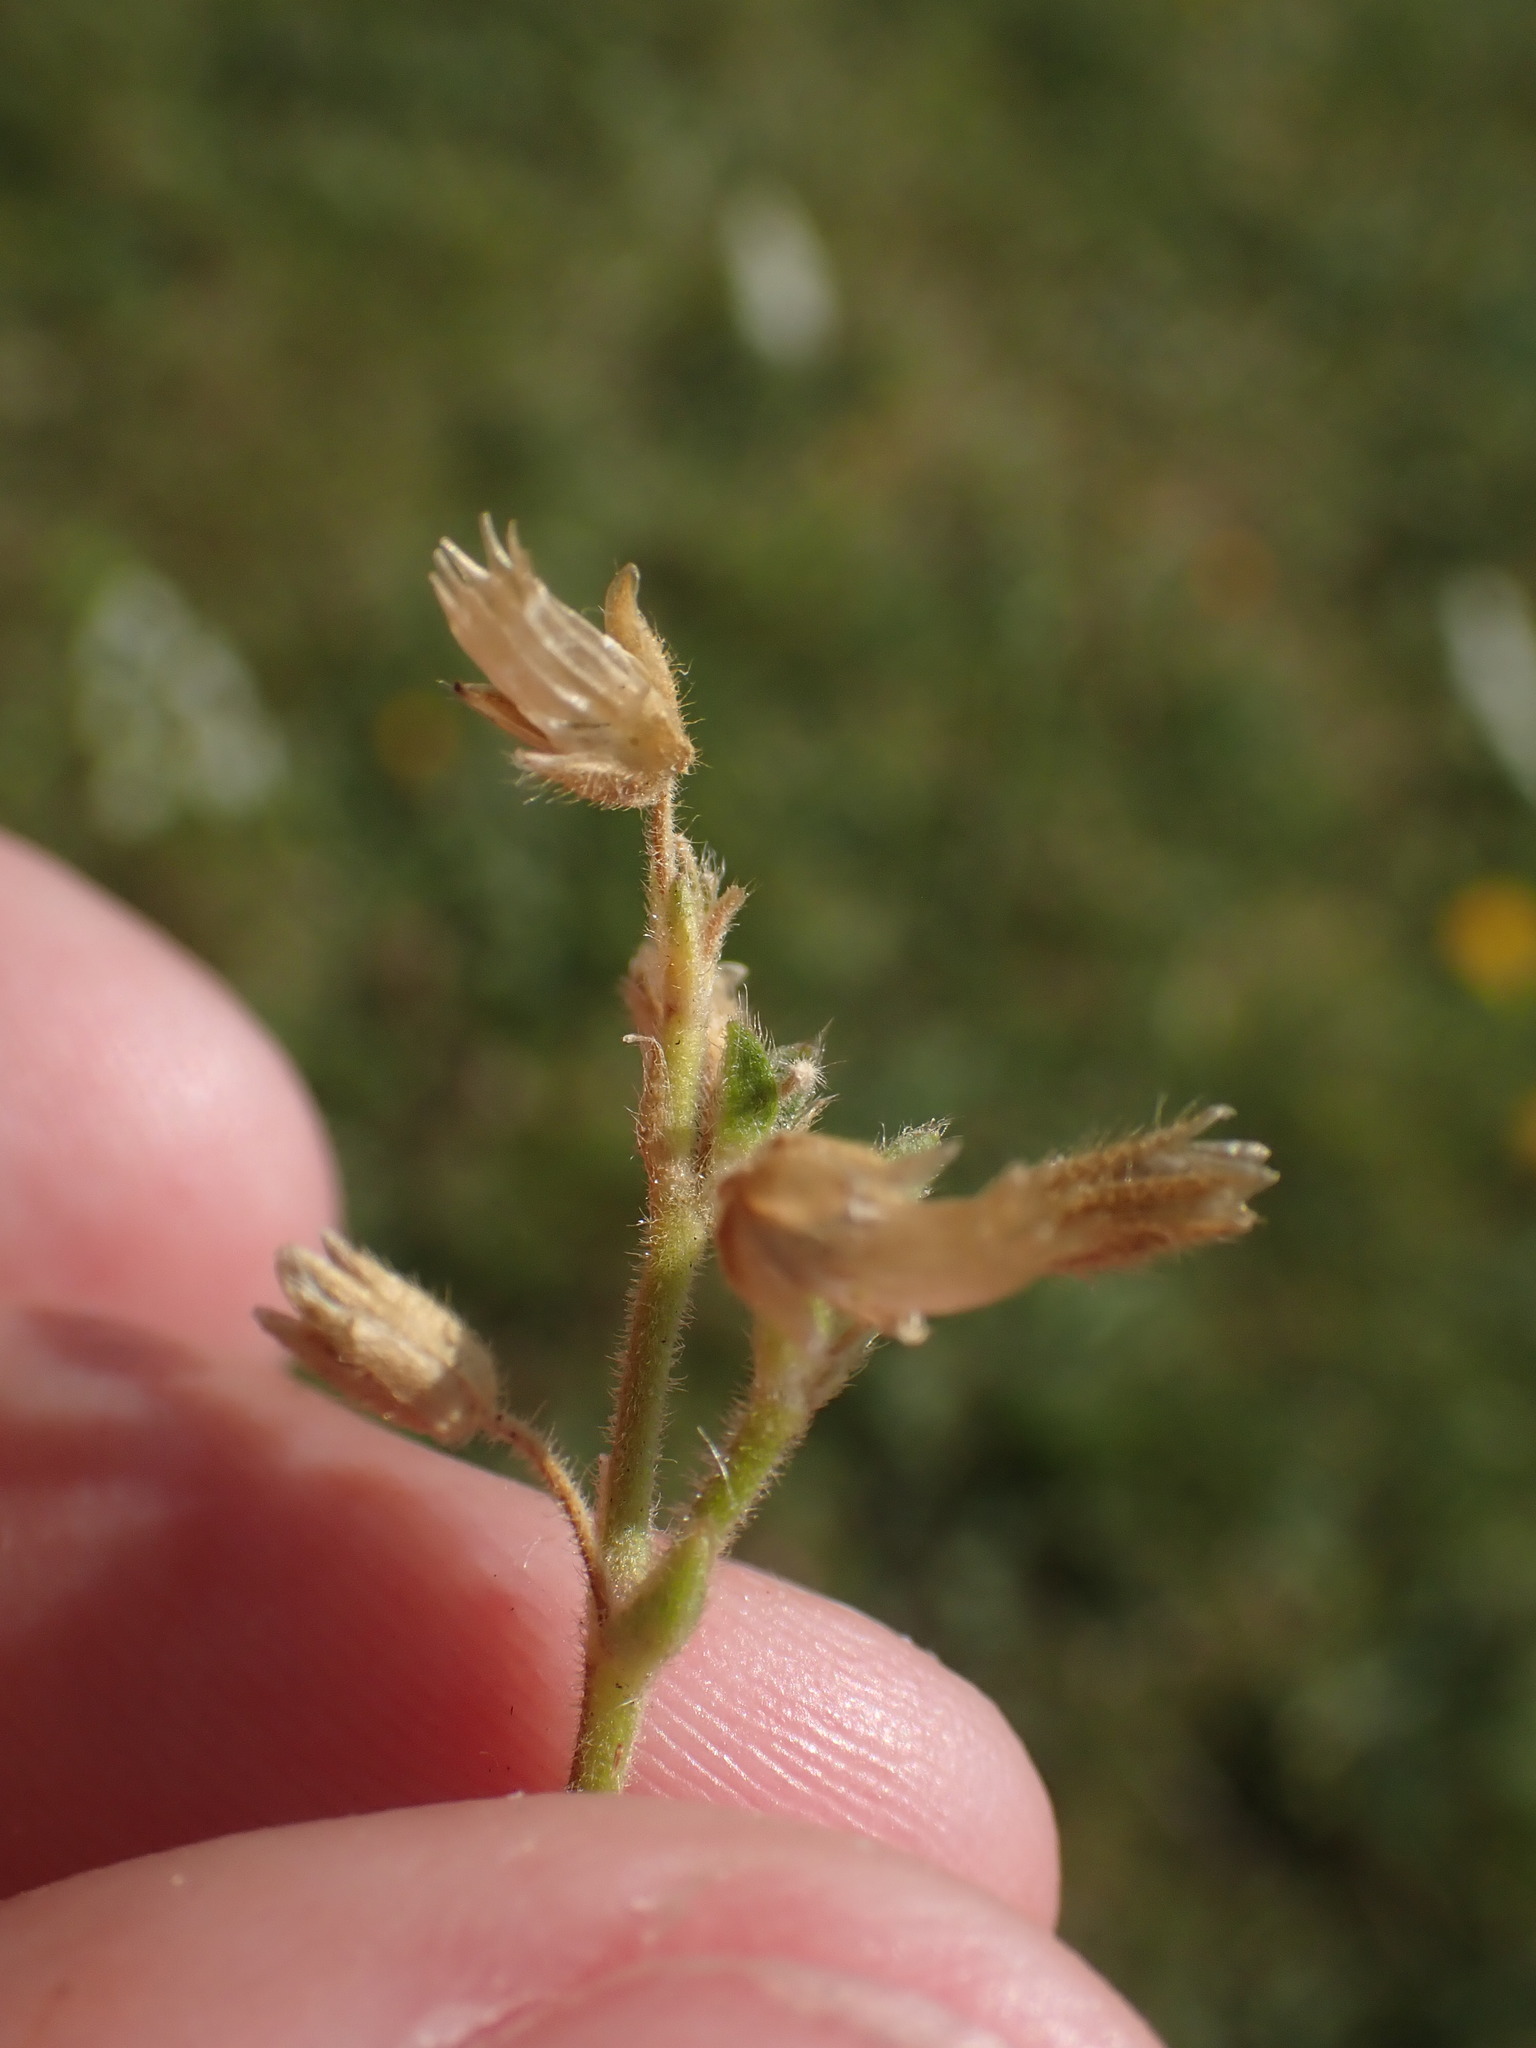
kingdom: Plantae
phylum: Tracheophyta
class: Magnoliopsida
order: Caryophyllales
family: Caryophyllaceae
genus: Cerastium
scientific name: Cerastium fontanum
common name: Common mouse-ear
